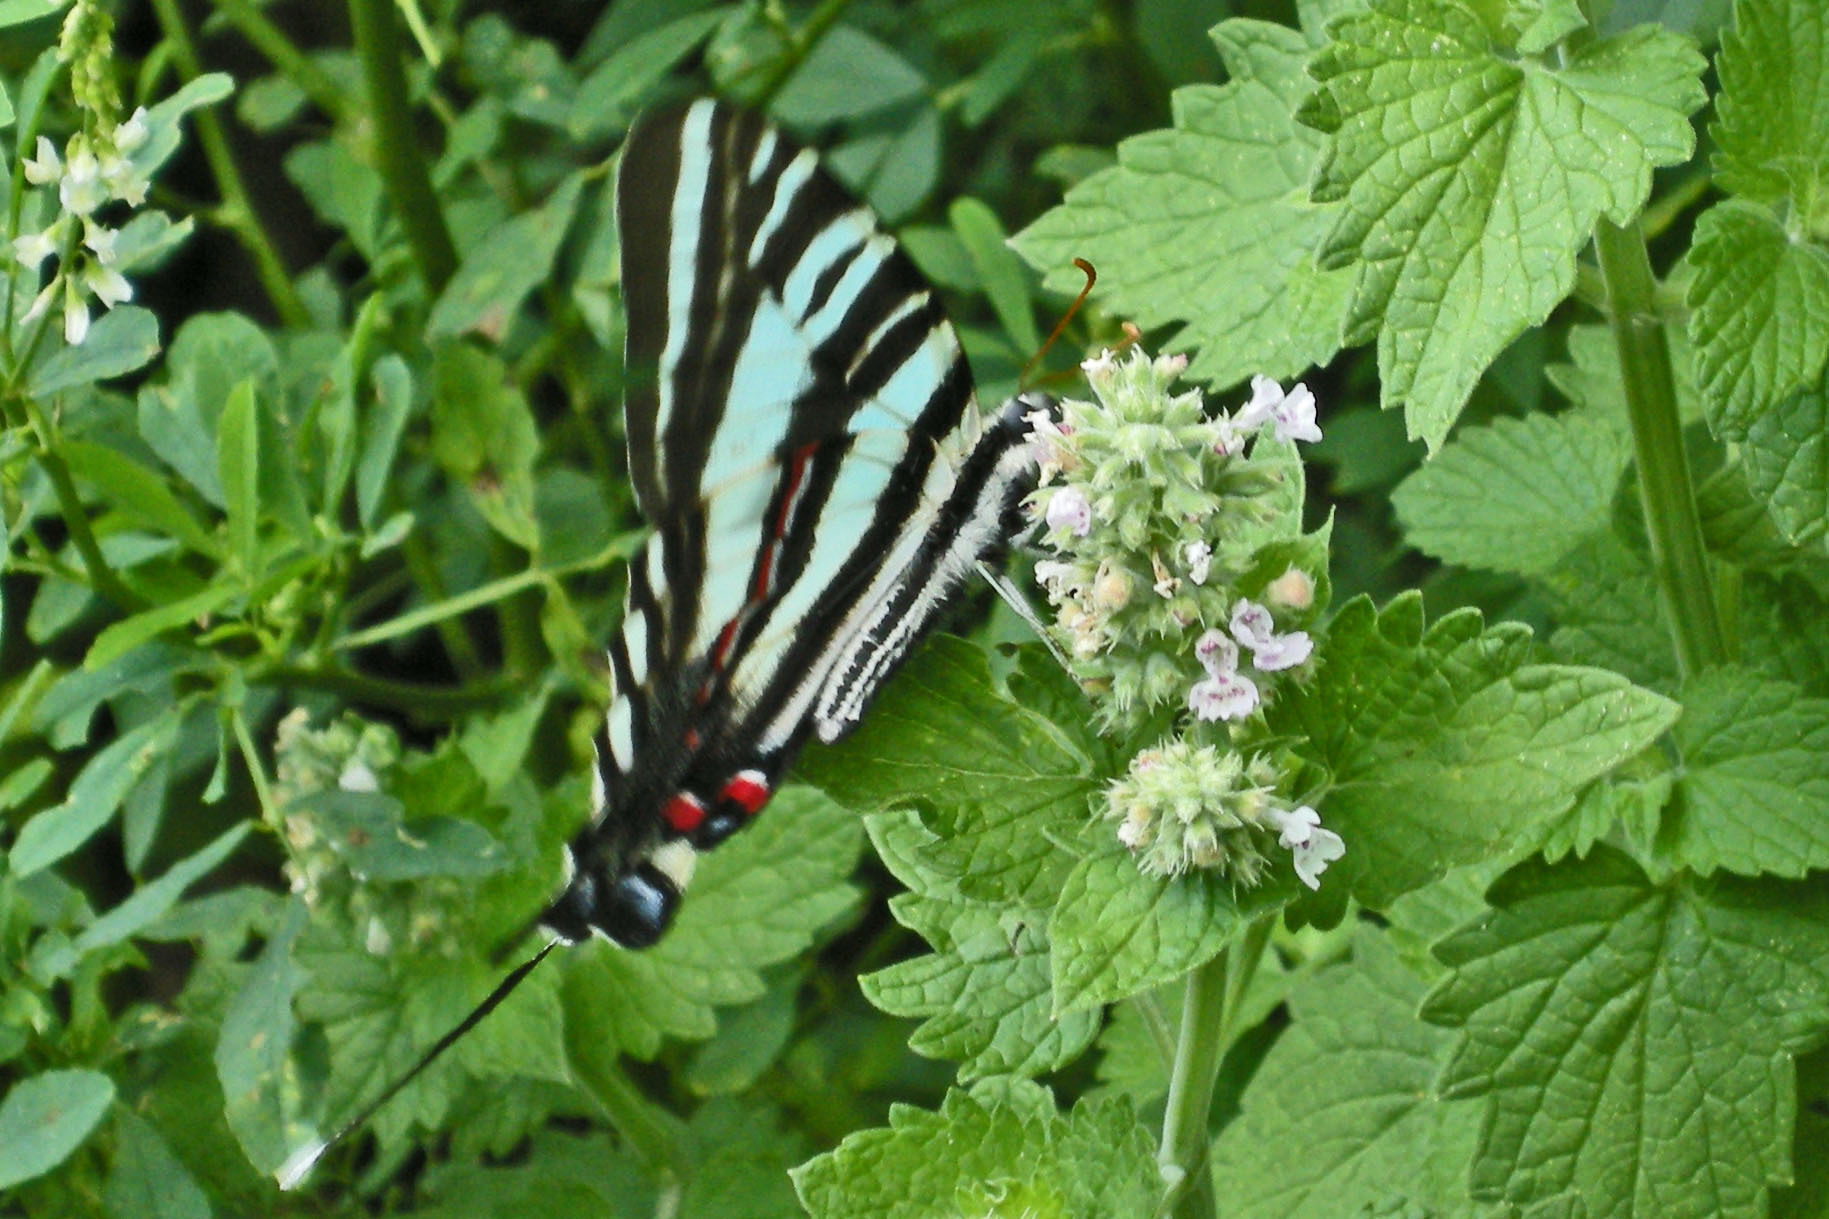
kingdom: Animalia
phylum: Arthropoda
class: Insecta
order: Lepidoptera
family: Papilionidae
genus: Protographium
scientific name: Protographium marcellus
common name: Zebra swallowtail
